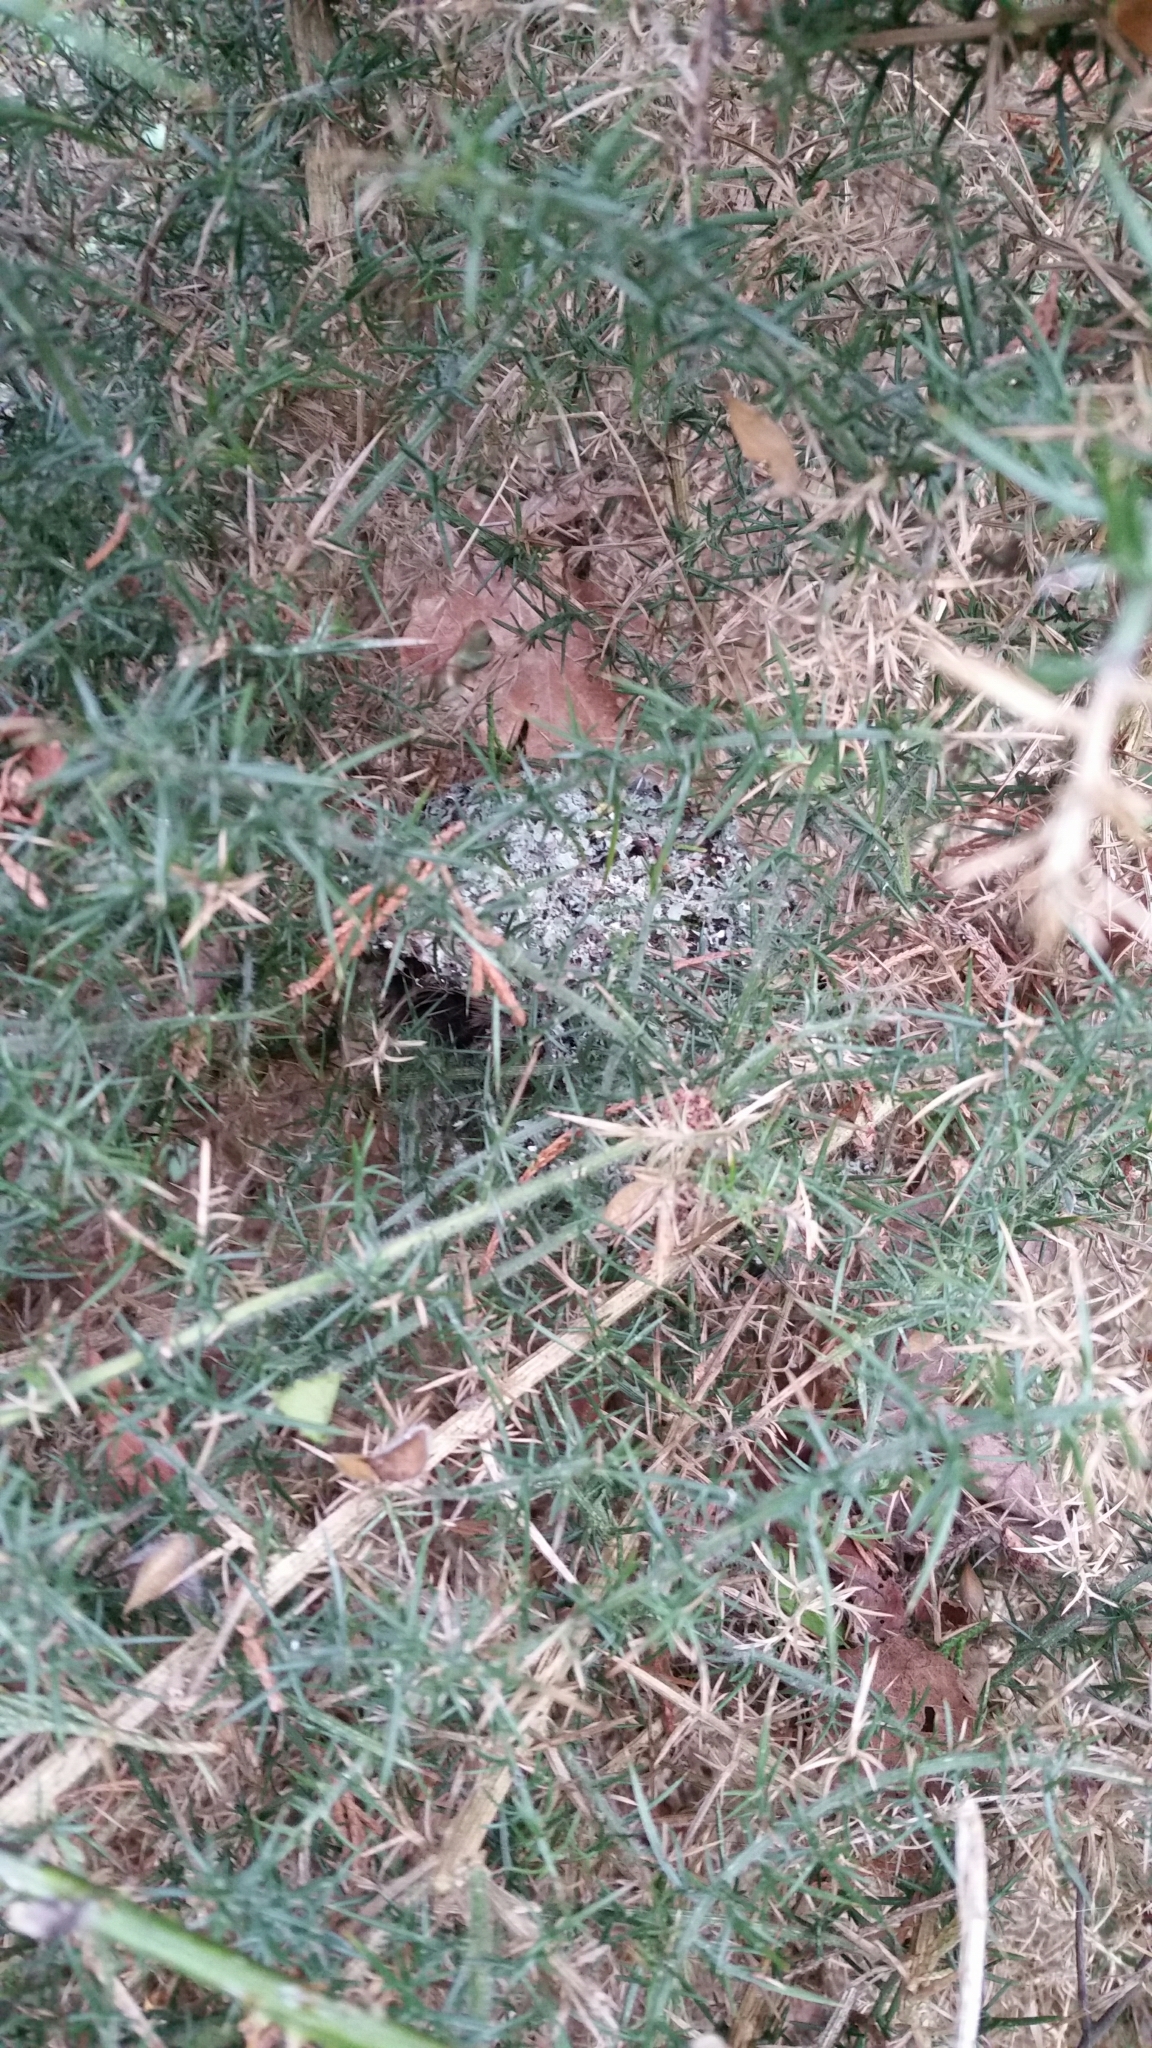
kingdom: Animalia
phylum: Chordata
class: Aves
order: Passeriformes
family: Aegithalidae
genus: Aegithalos
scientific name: Aegithalos caudatus
